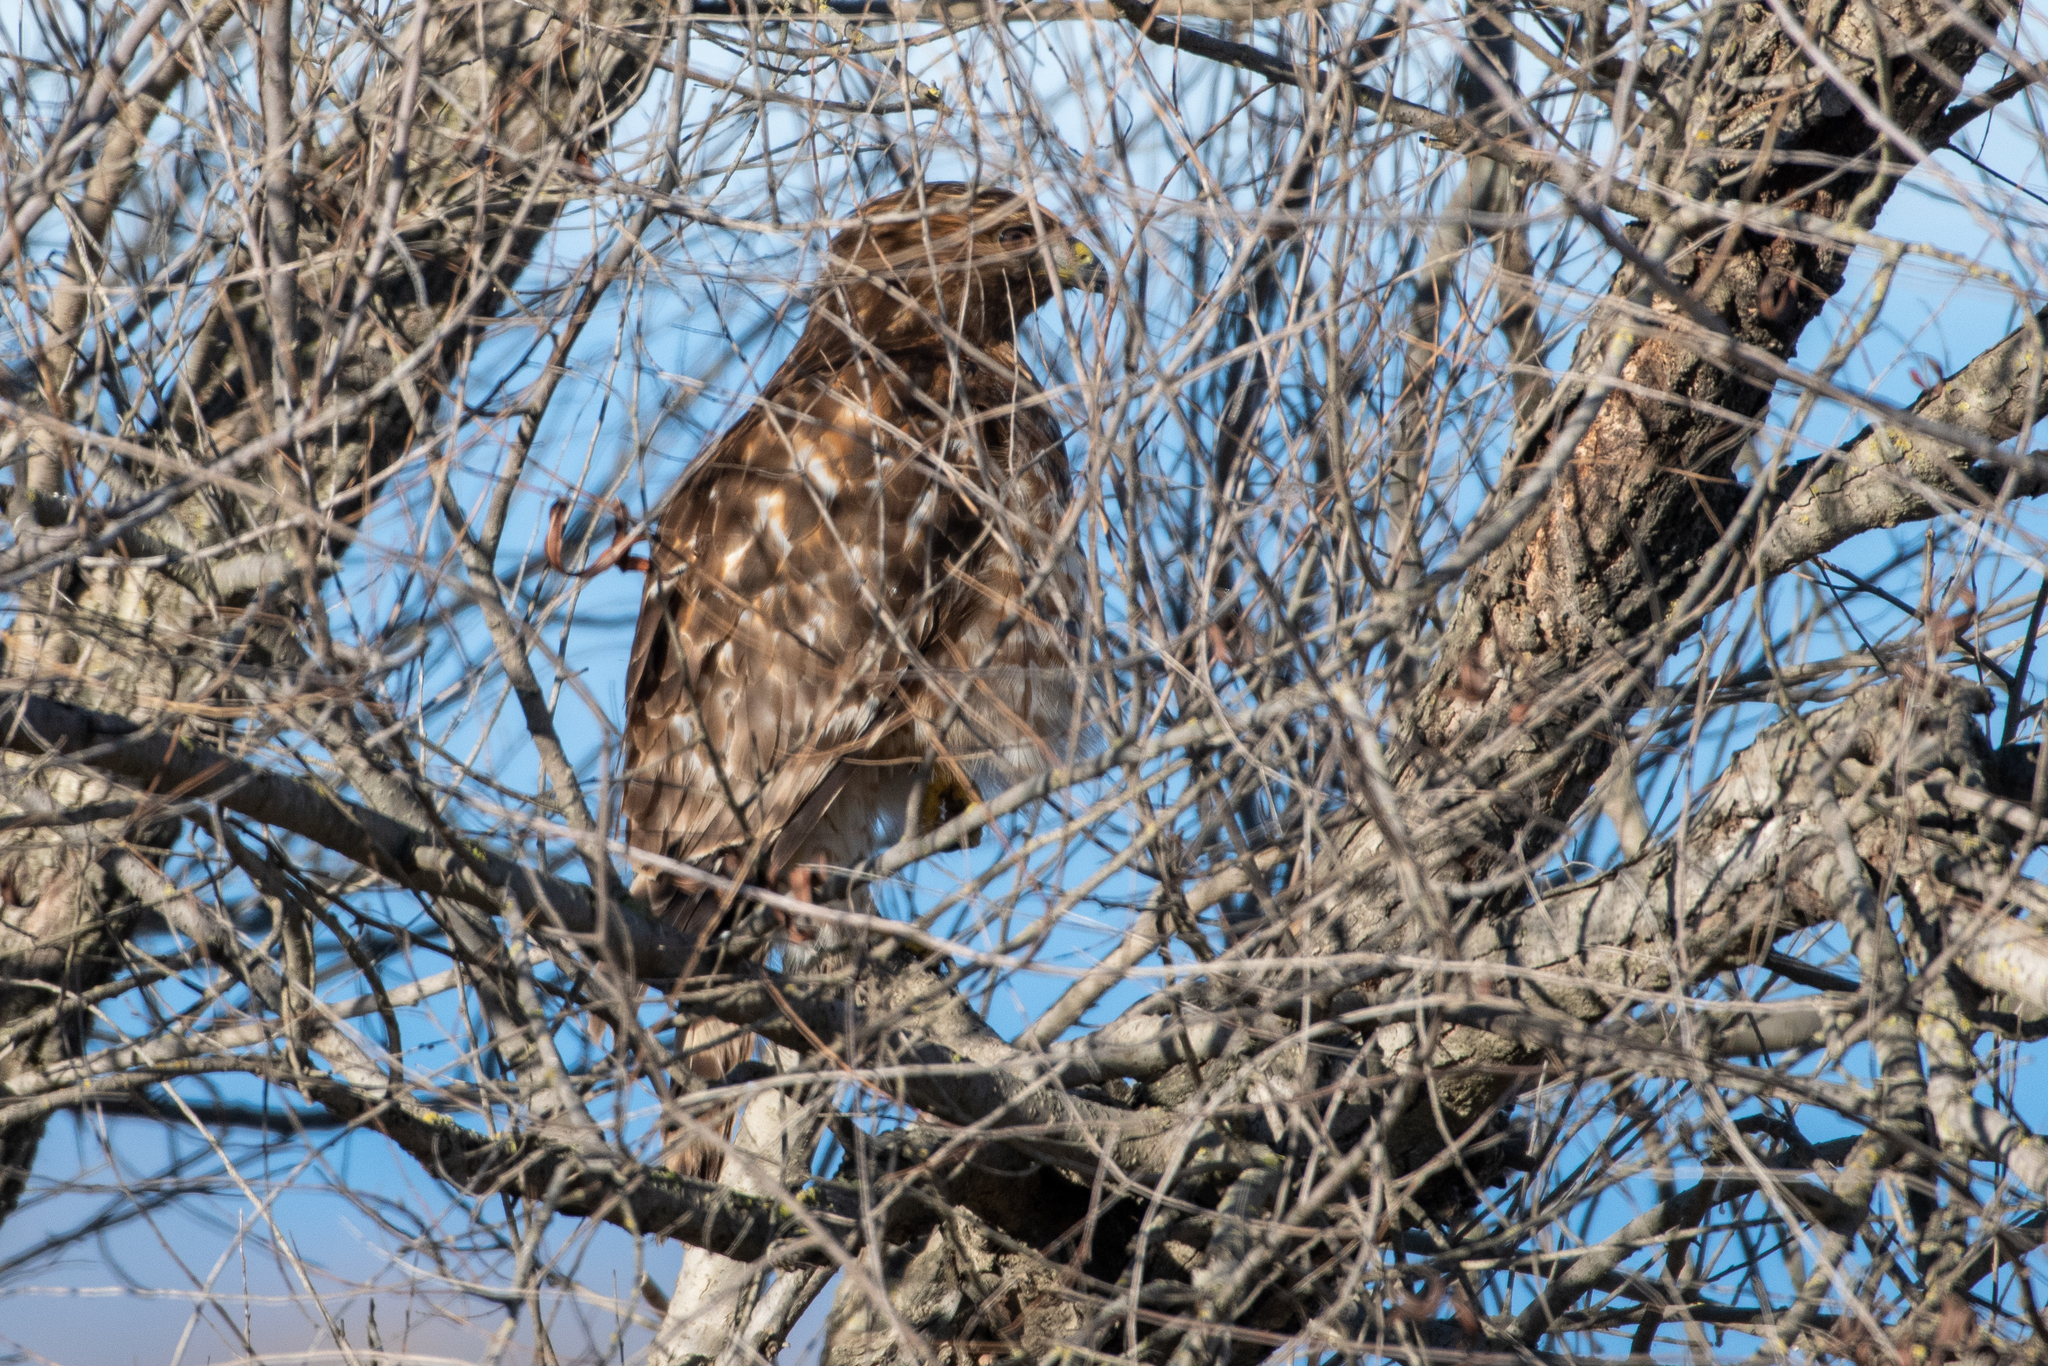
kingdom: Animalia
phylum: Chordata
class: Aves
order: Accipitriformes
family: Accipitridae
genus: Buteo
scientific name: Buteo jamaicensis
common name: Red-tailed hawk
